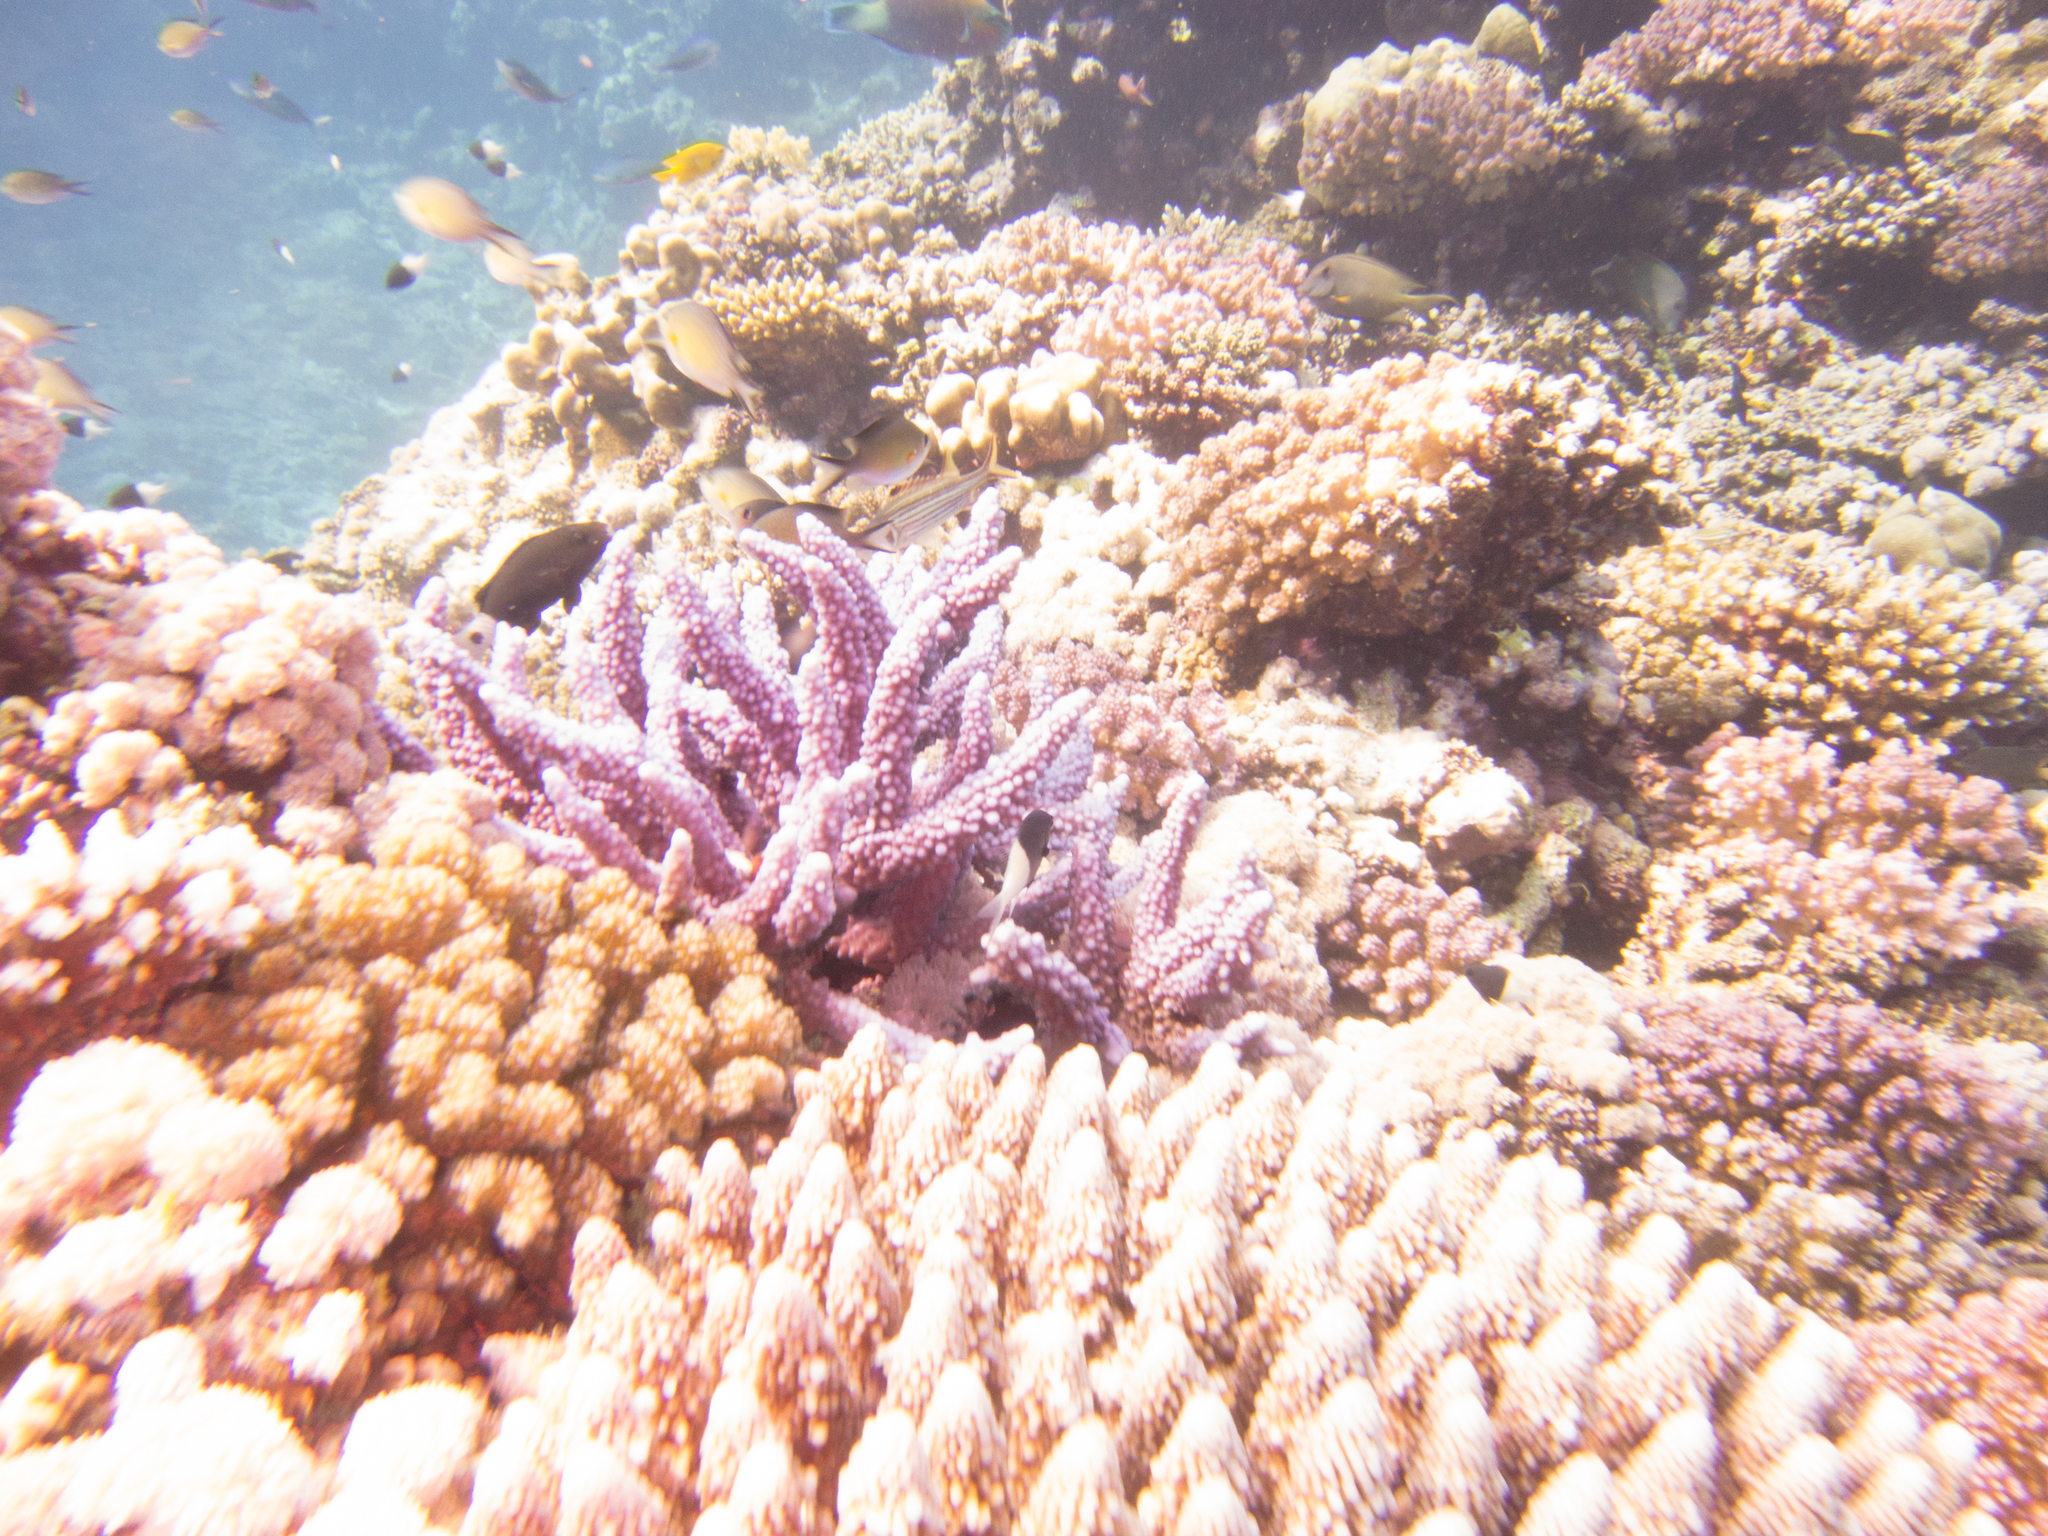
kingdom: Animalia
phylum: Chordata
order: Perciformes
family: Scaridae
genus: Chlorurus
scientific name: Chlorurus sordidus
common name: Bullethead parrotfish
